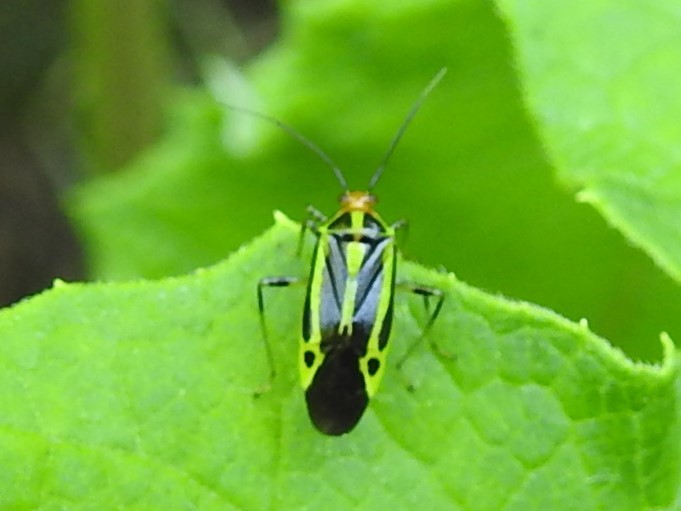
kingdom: Animalia
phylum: Arthropoda
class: Insecta
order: Hemiptera
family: Miridae
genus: Poecilocapsus
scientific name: Poecilocapsus lineatus
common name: Four-lined plant bug
